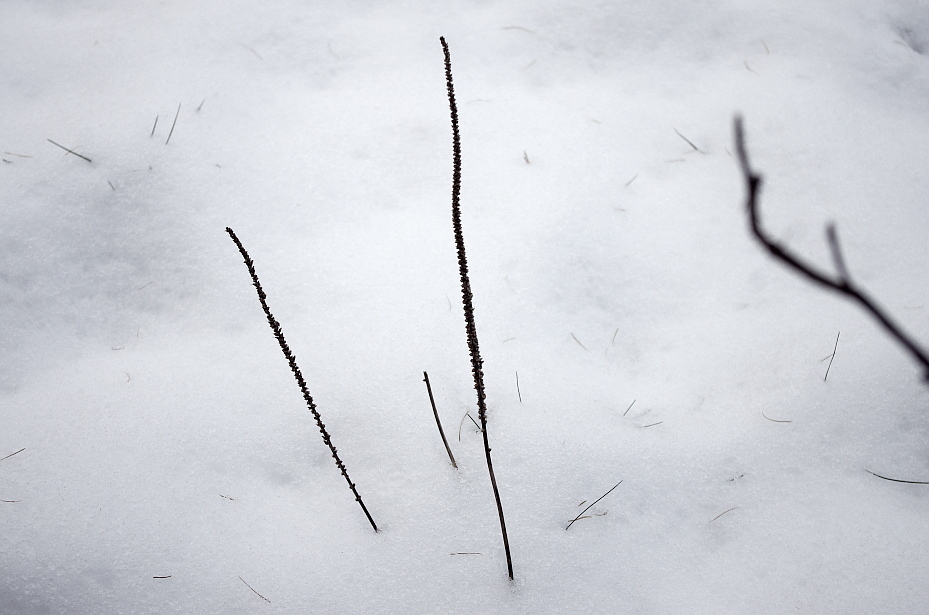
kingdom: Plantae
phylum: Tracheophyta
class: Magnoliopsida
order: Lamiales
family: Plantaginaceae
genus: Plantago
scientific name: Plantago major
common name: Common plantain
